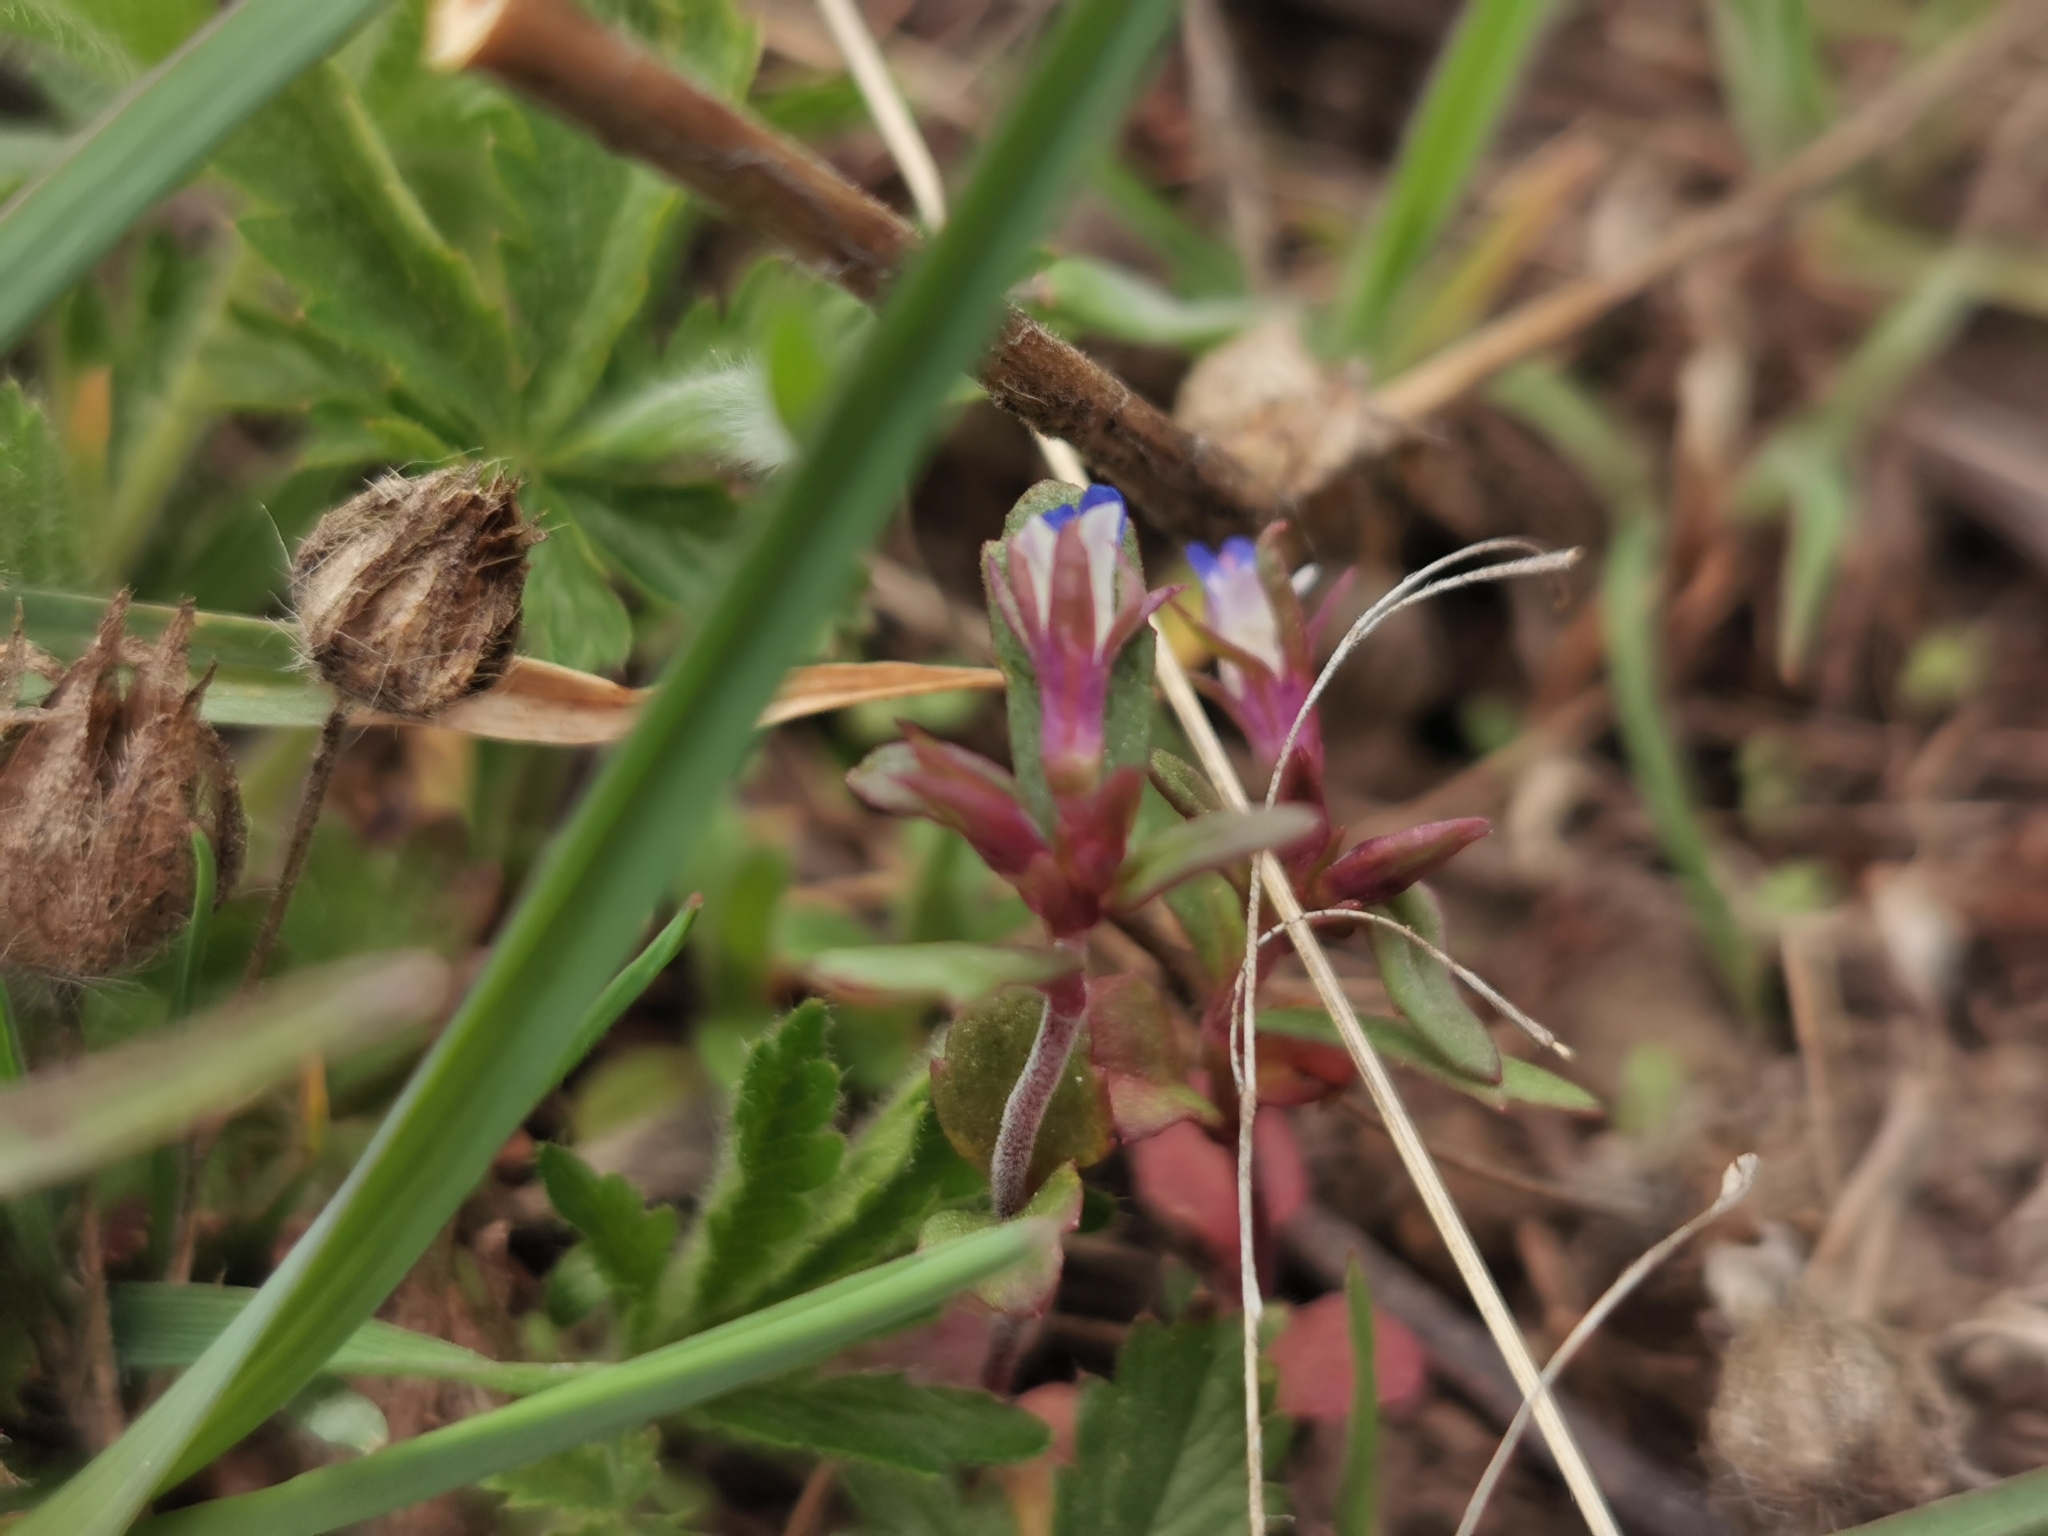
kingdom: Plantae
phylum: Tracheophyta
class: Magnoliopsida
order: Lamiales
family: Plantaginaceae
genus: Collinsia
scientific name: Collinsia parviflora
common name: Blue-lips
